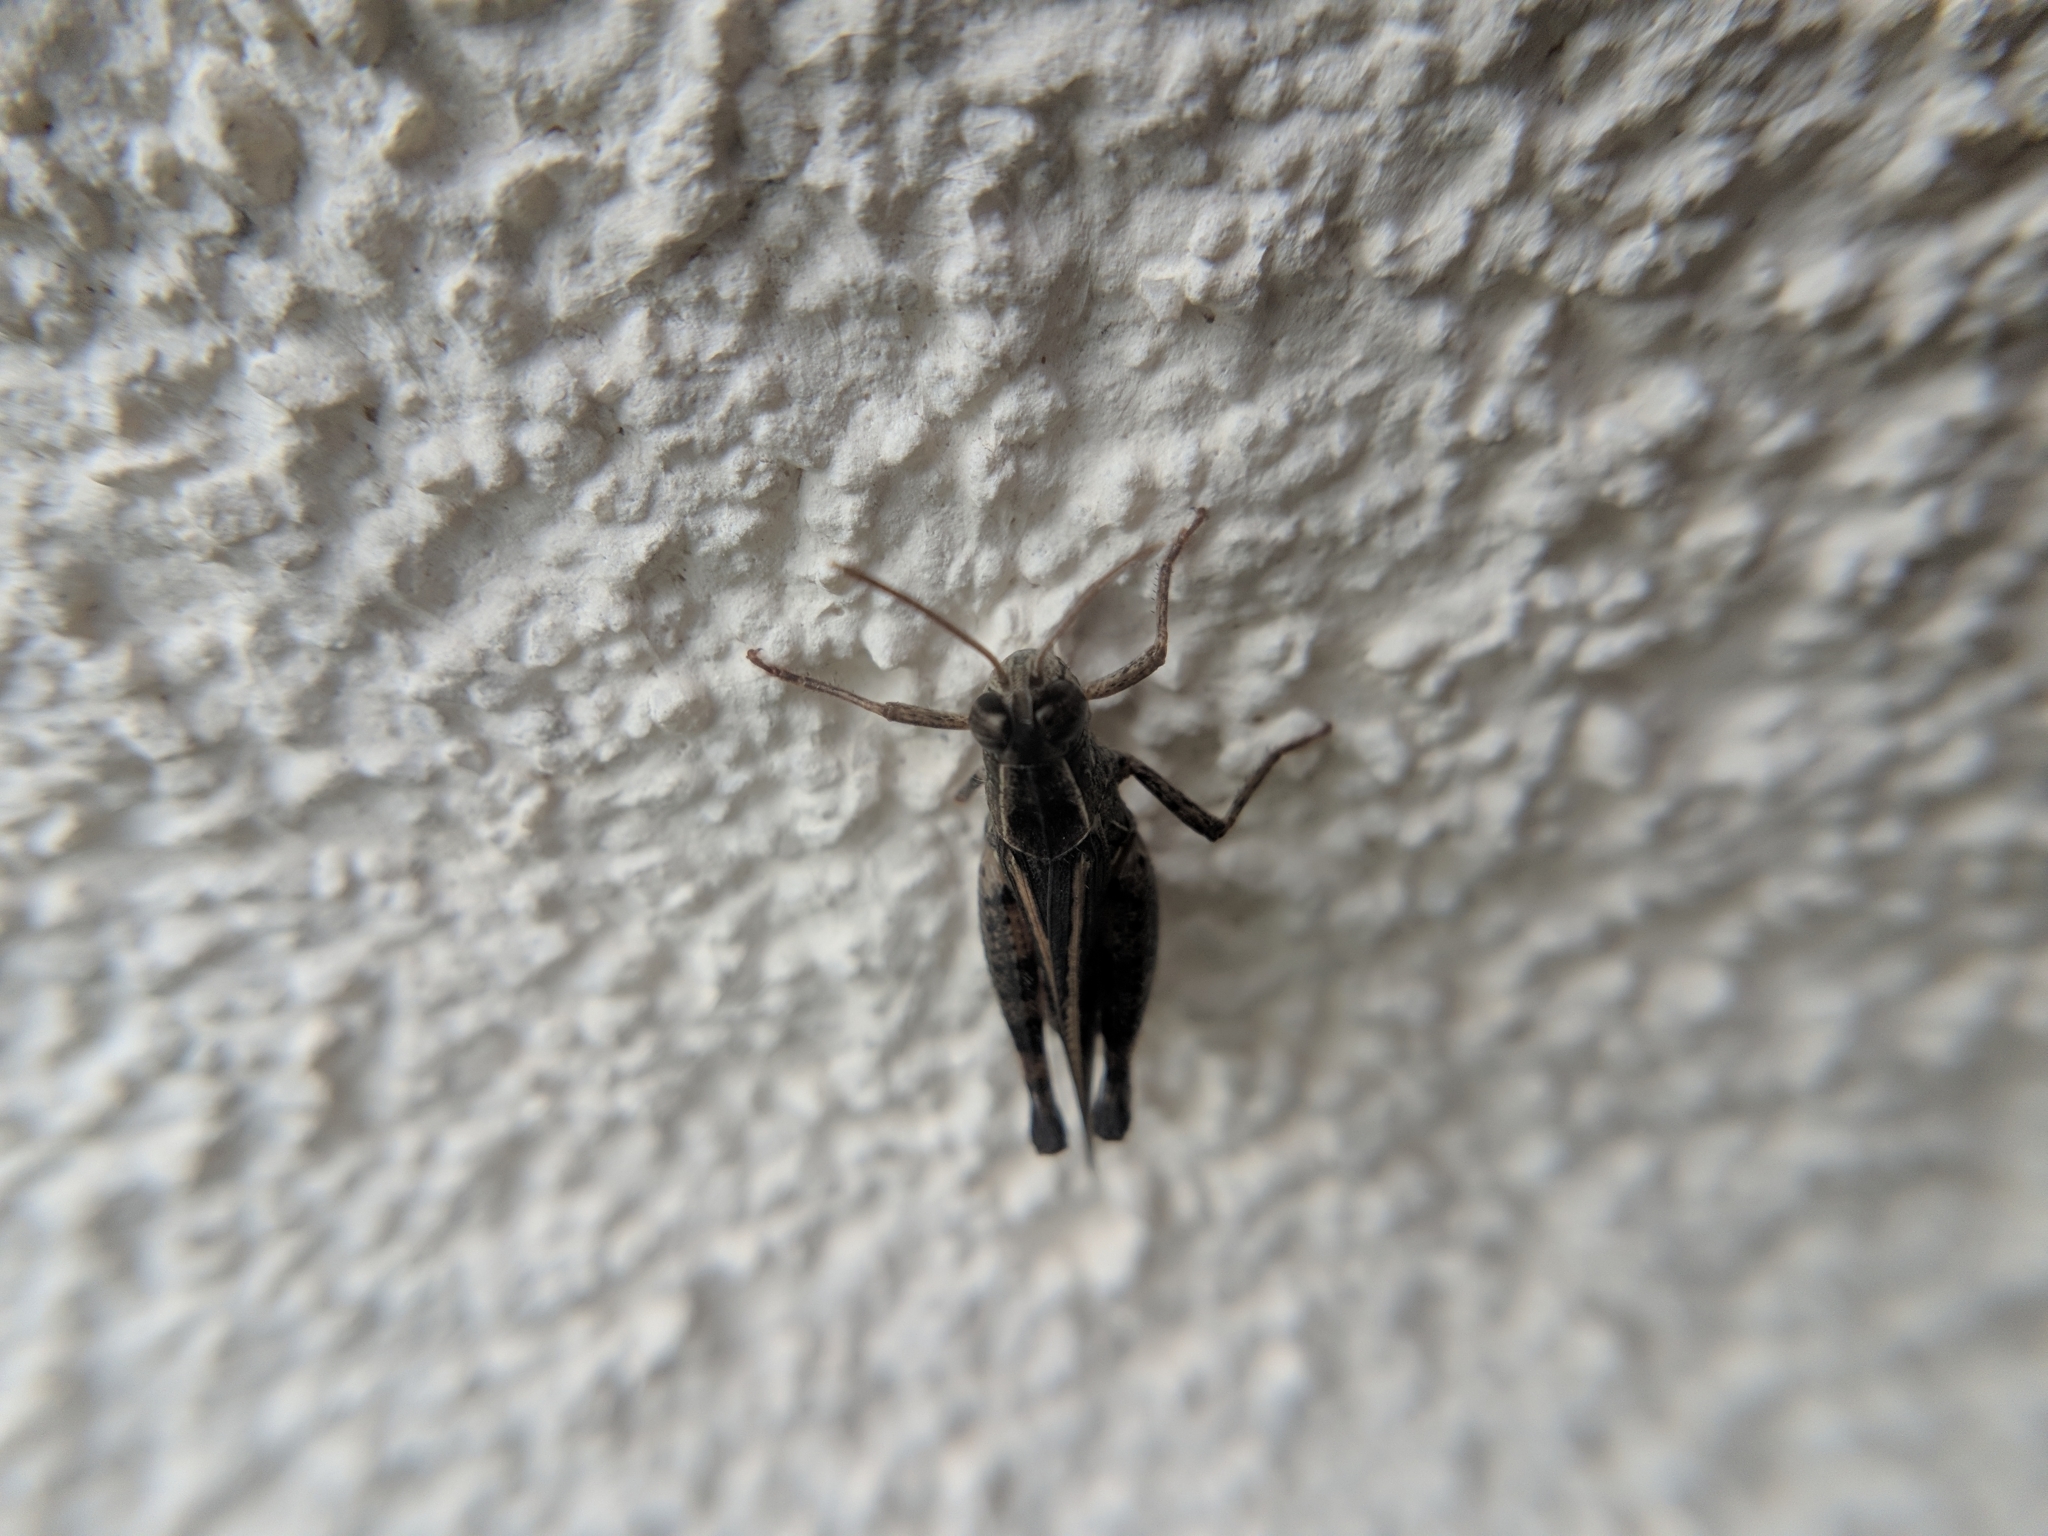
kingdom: Animalia
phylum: Arthropoda
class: Insecta
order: Orthoptera
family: Acrididae
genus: Calliptamus
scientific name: Calliptamus italicus
